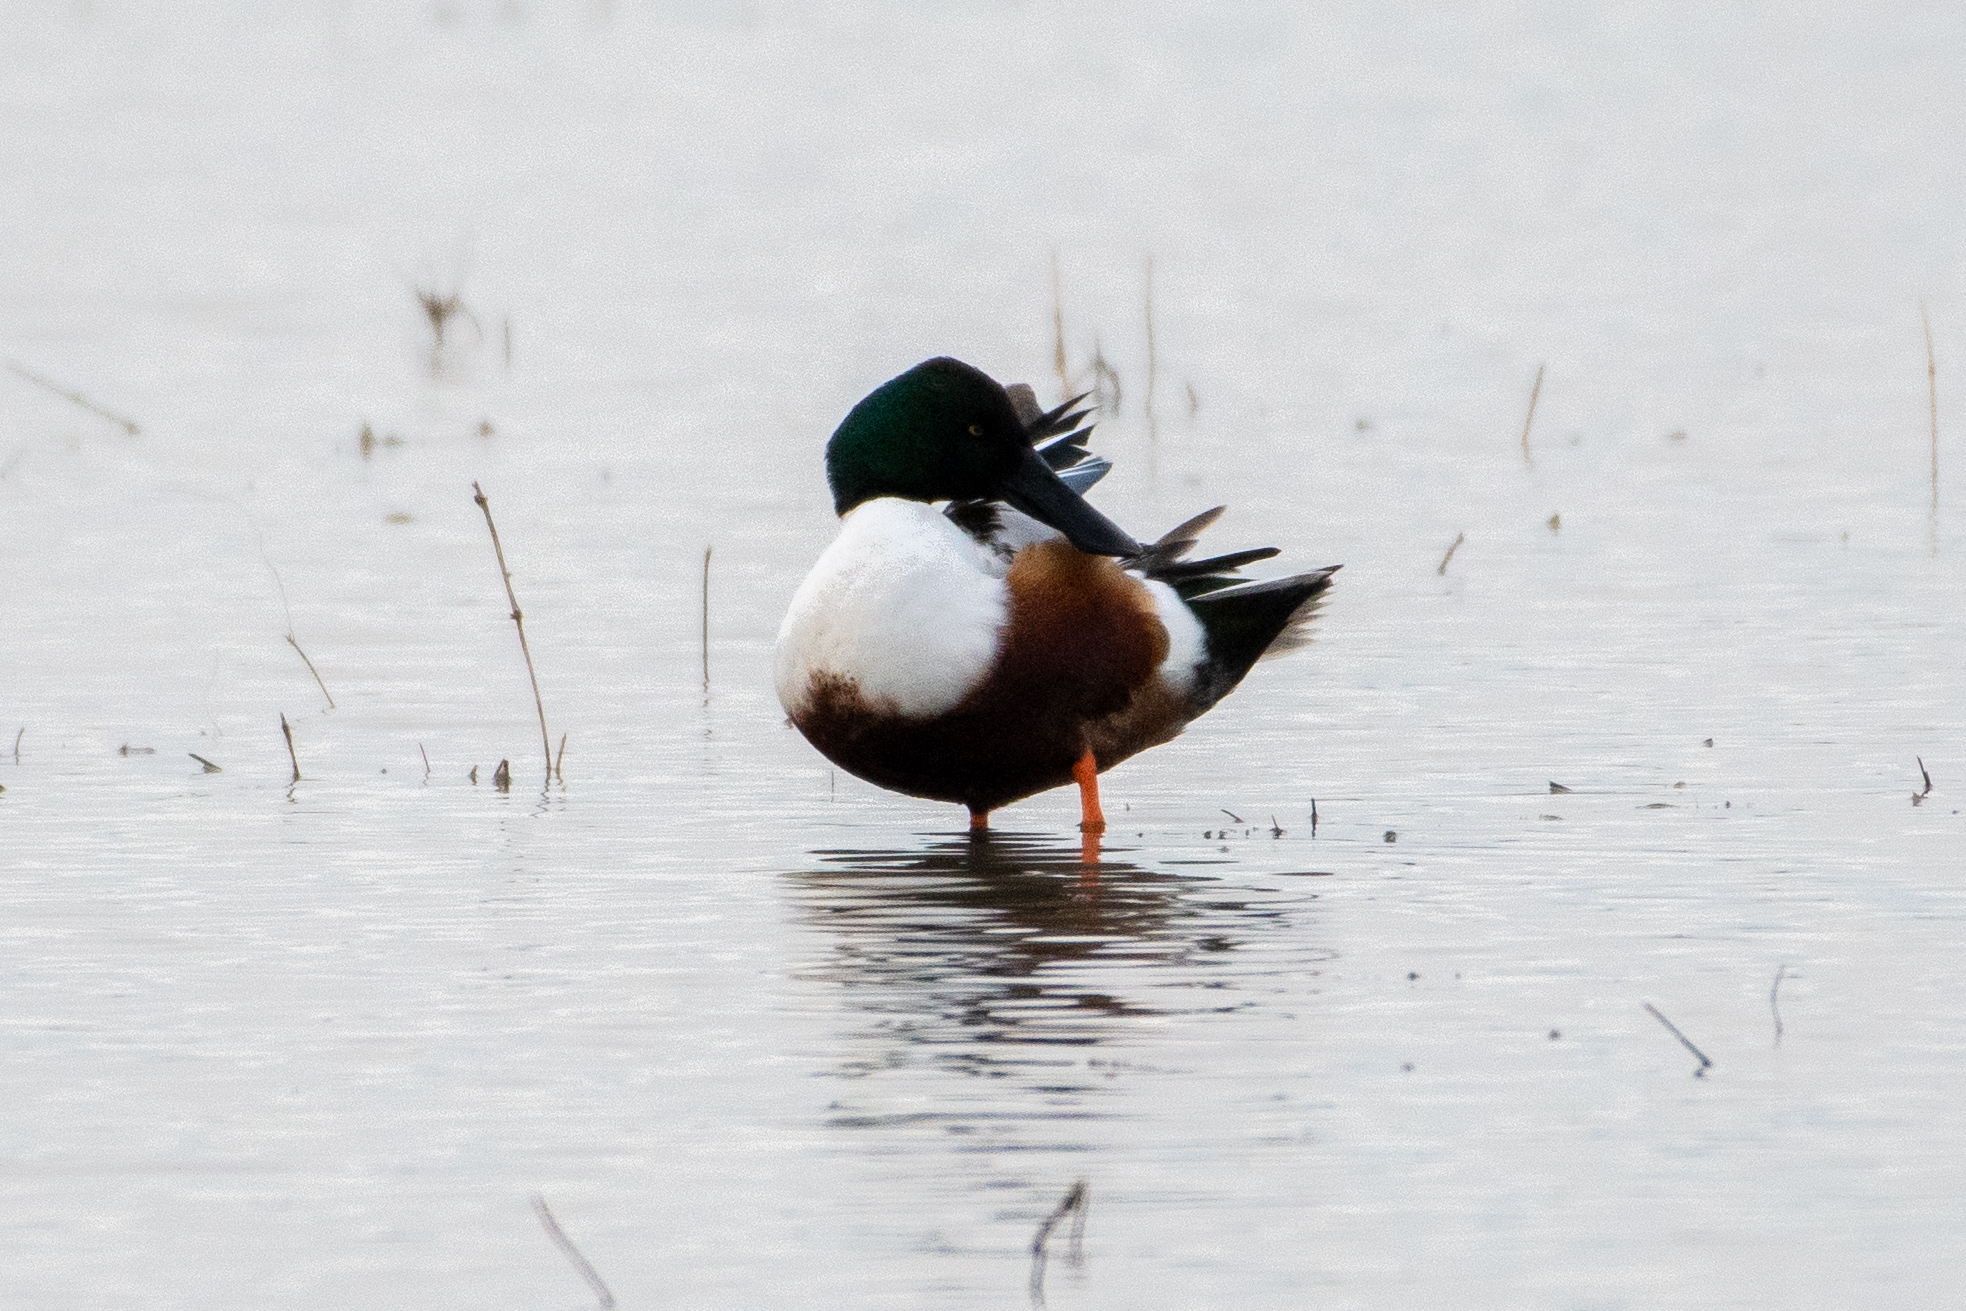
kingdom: Animalia
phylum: Chordata
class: Aves
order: Anseriformes
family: Anatidae
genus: Spatula
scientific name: Spatula clypeata
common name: Northern shoveler
